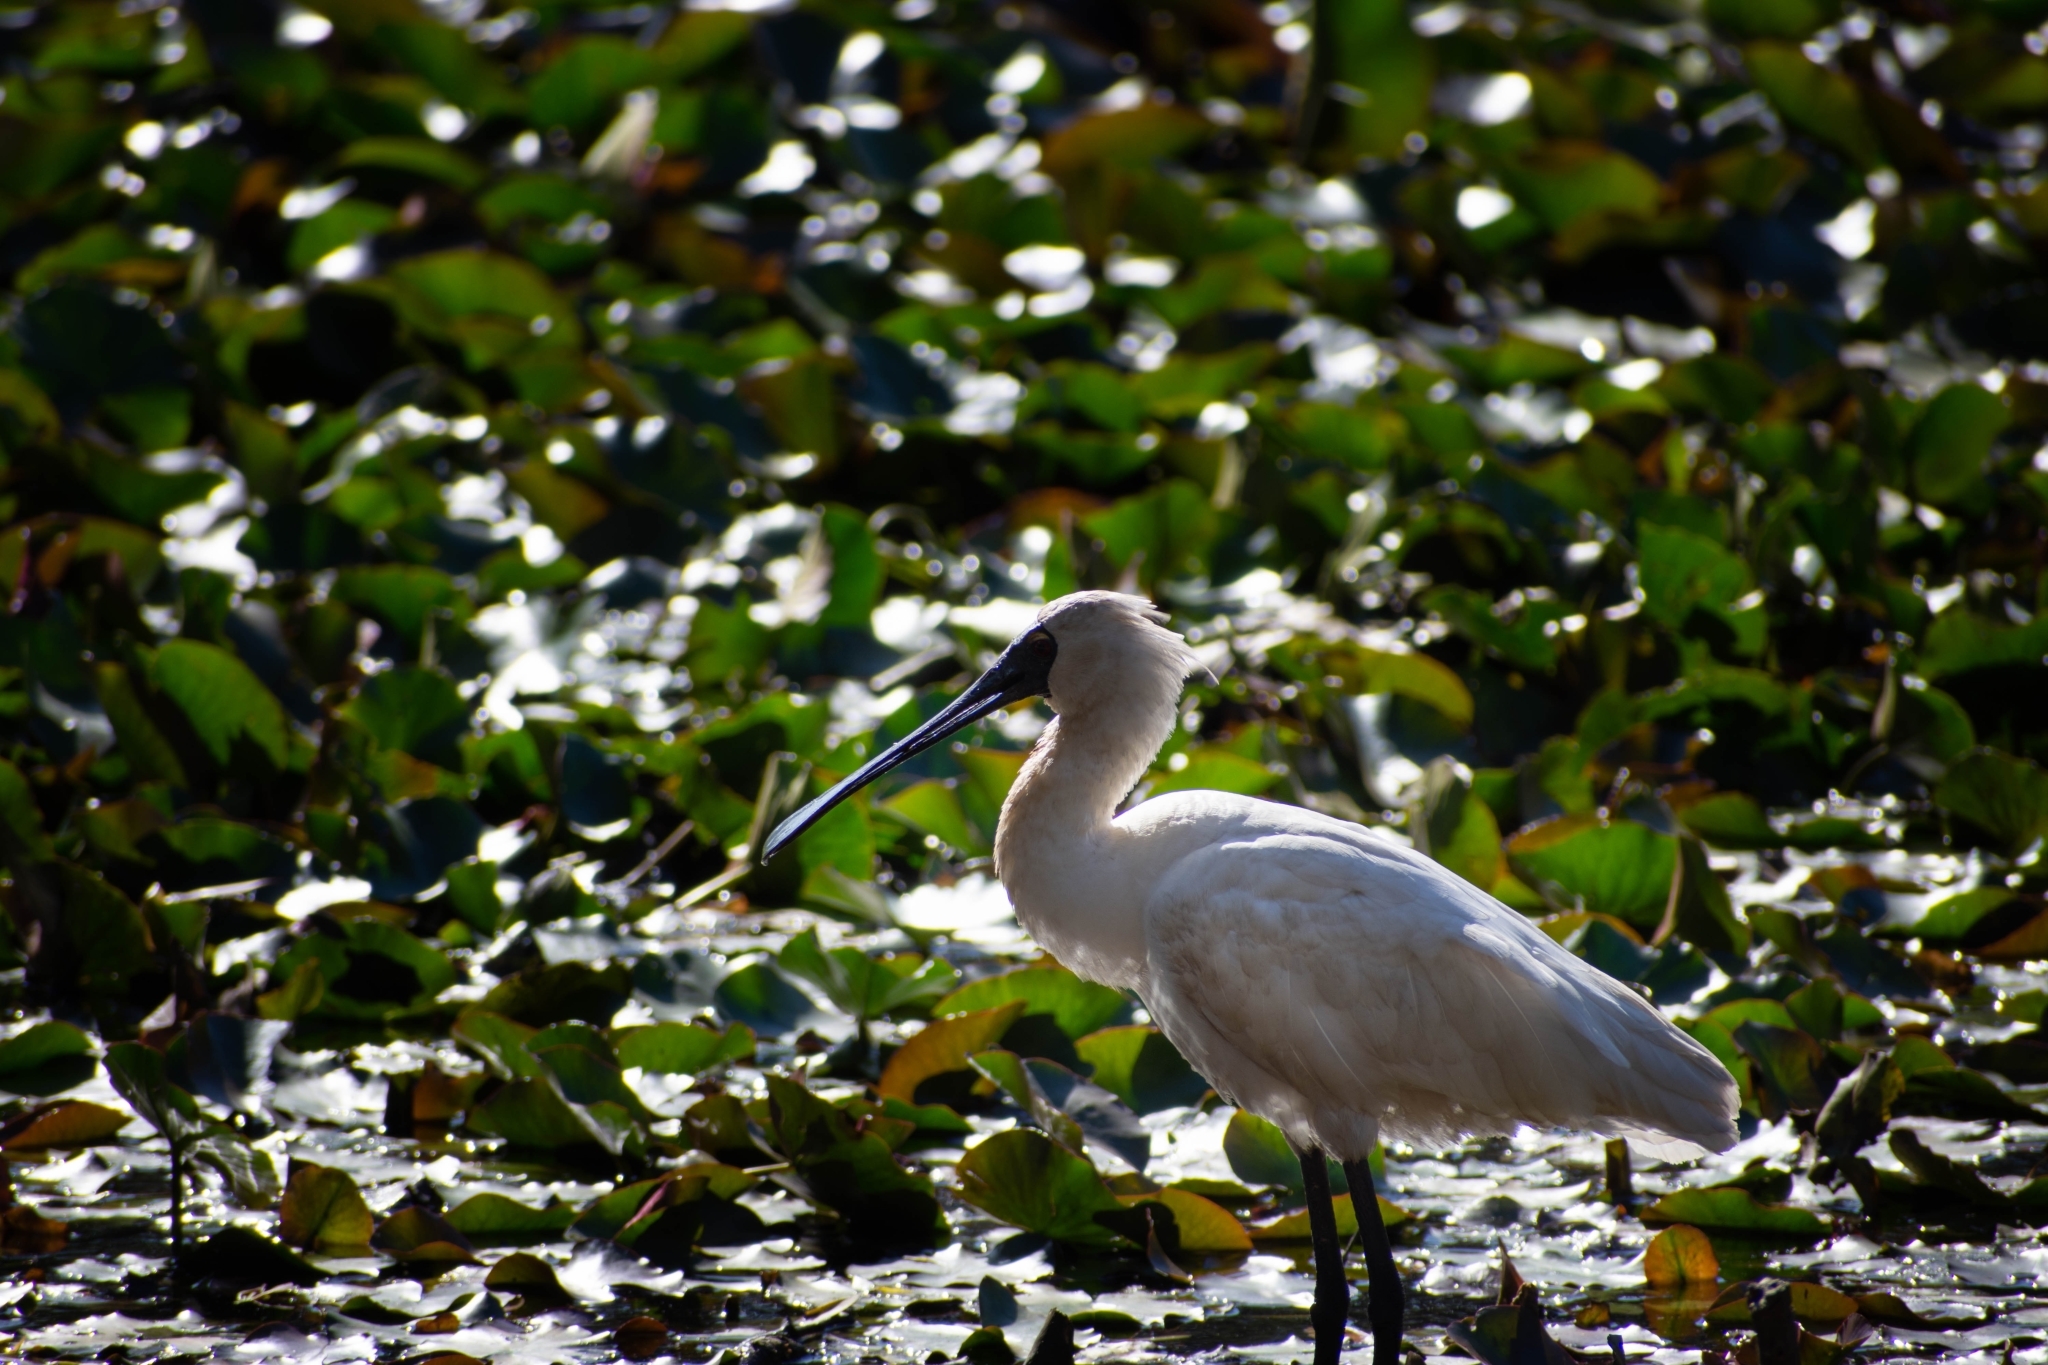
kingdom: Animalia
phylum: Chordata
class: Aves
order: Pelecaniformes
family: Threskiornithidae
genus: Platalea
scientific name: Platalea regia
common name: Royal spoonbill
